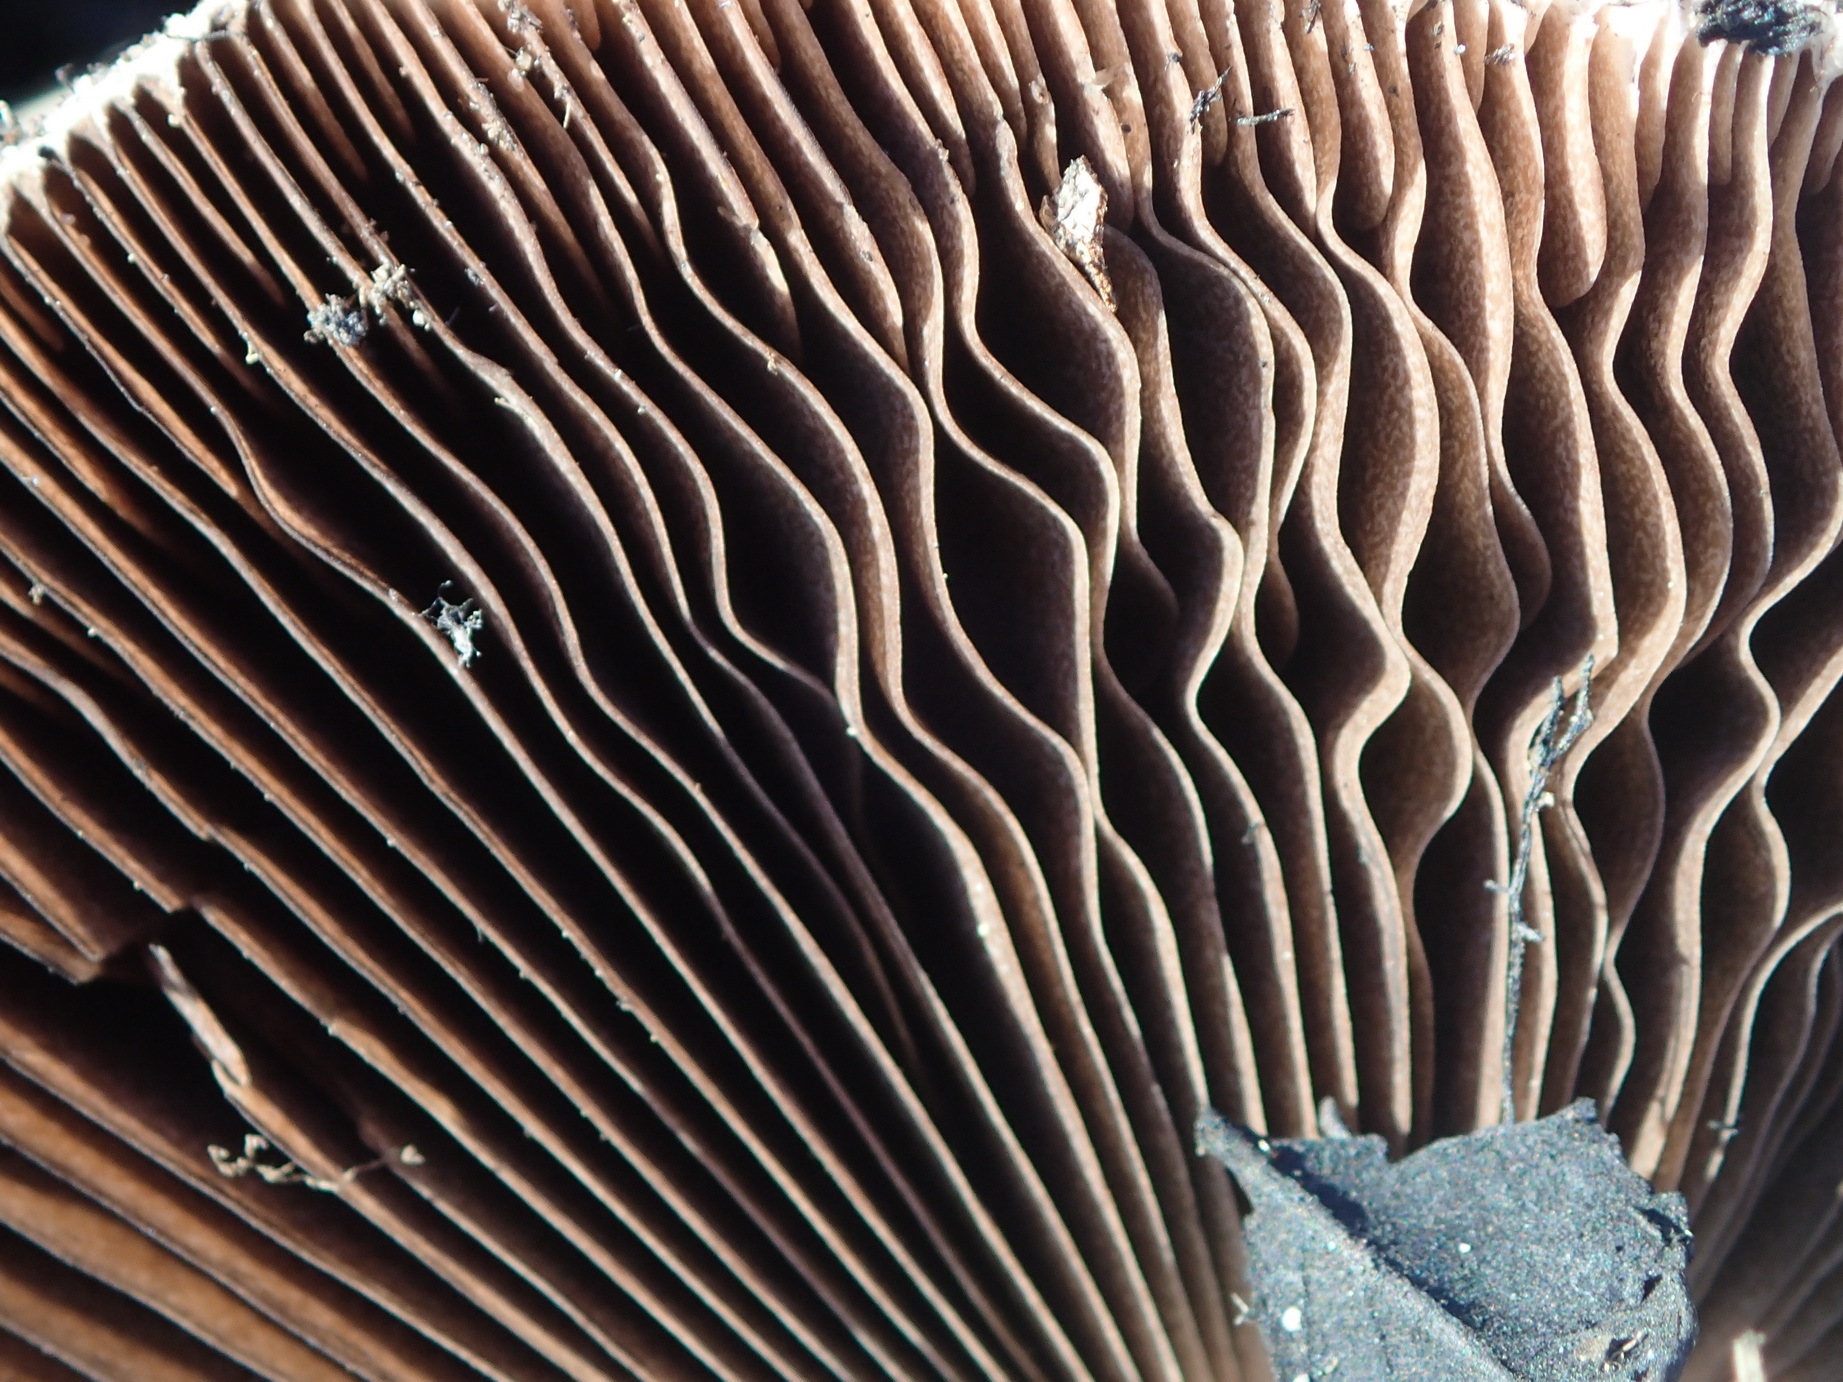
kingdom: Fungi
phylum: Basidiomycota
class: Agaricomycetes
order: Agaricales
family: Agaricaceae
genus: Agaricus
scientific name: Agaricus campestris
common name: Field mushroom
